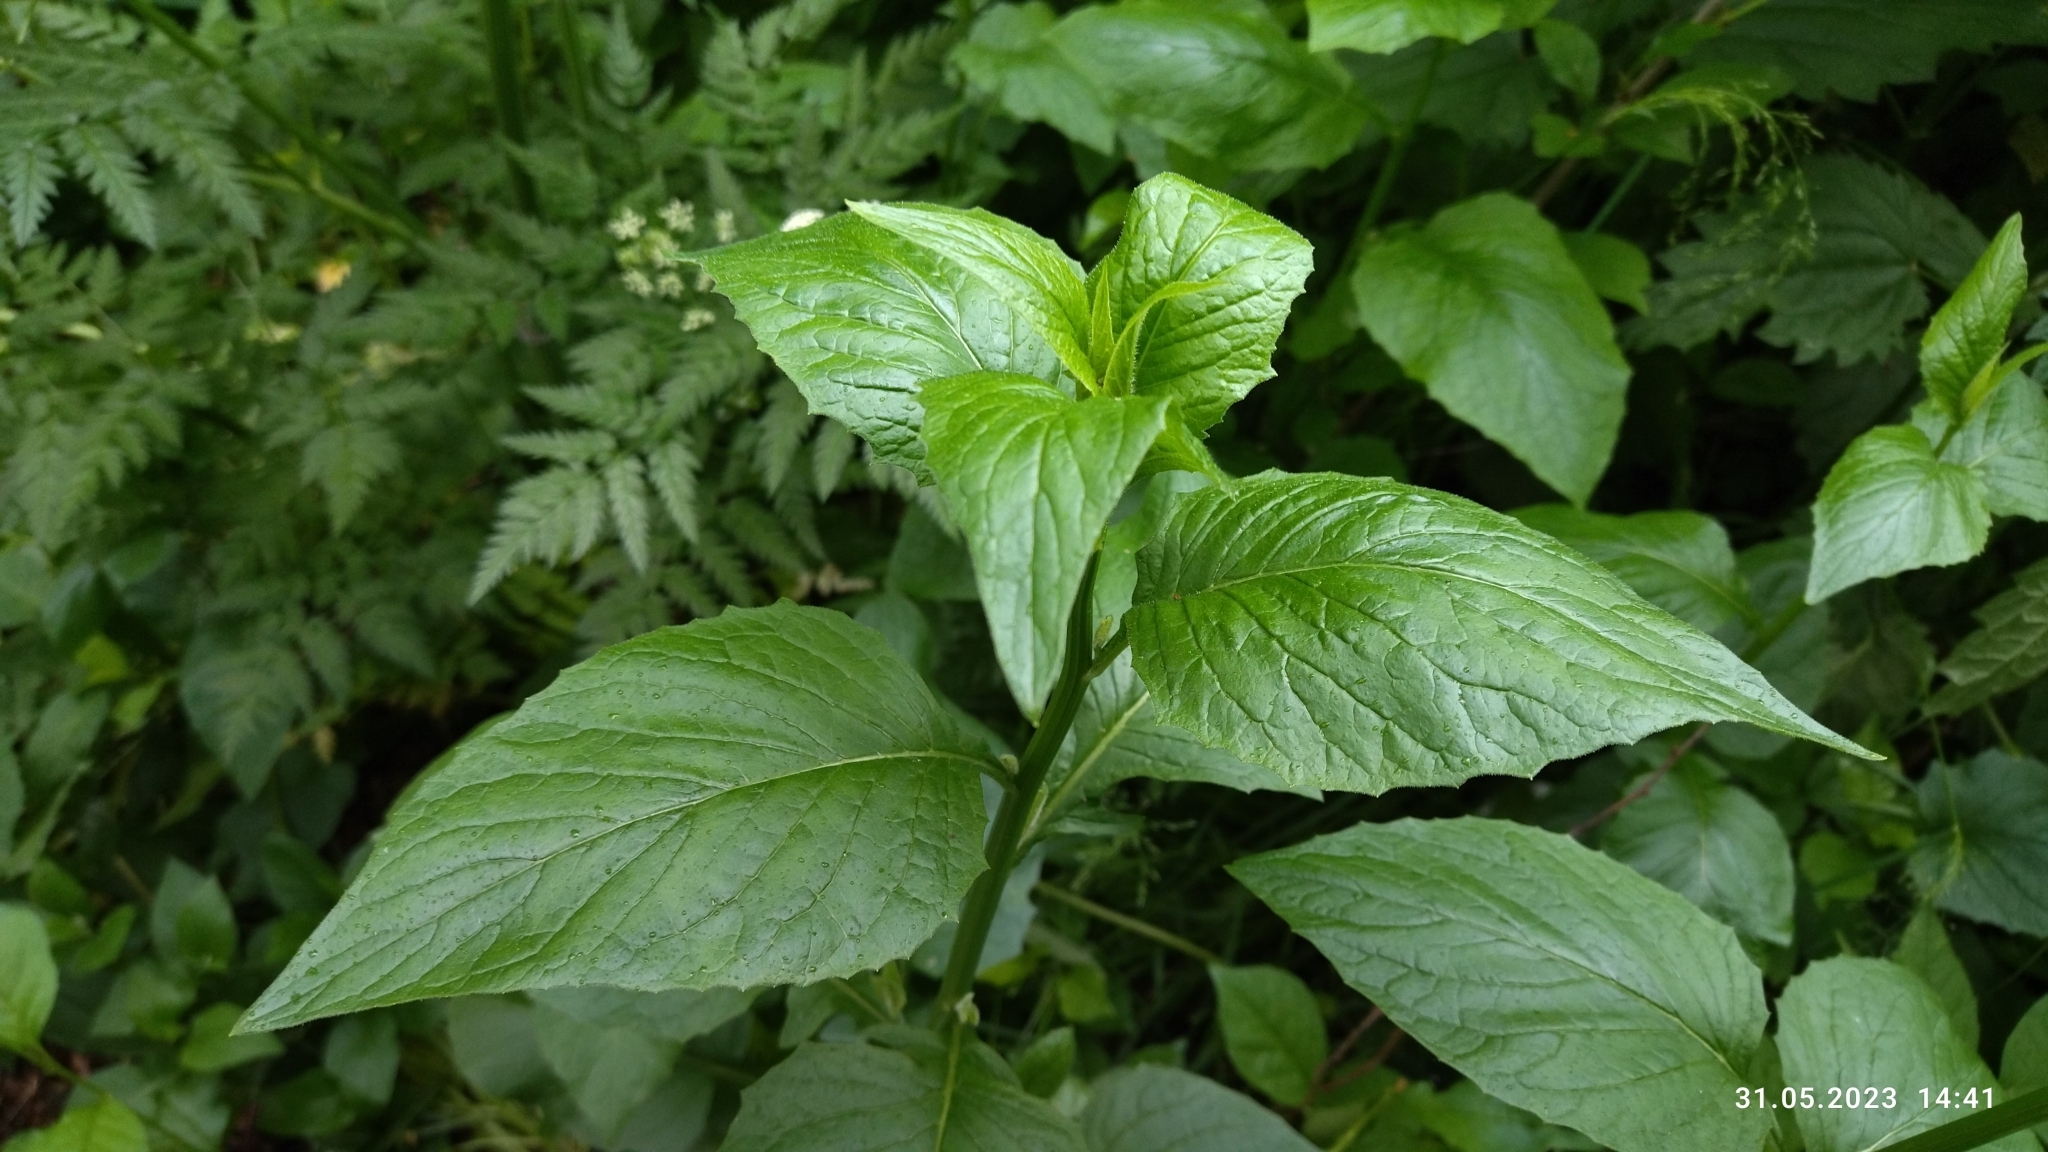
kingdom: Plantae
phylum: Tracheophyta
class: Magnoliopsida
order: Asterales
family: Asteraceae
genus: Lapsana
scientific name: Lapsana communis
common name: Nipplewort
